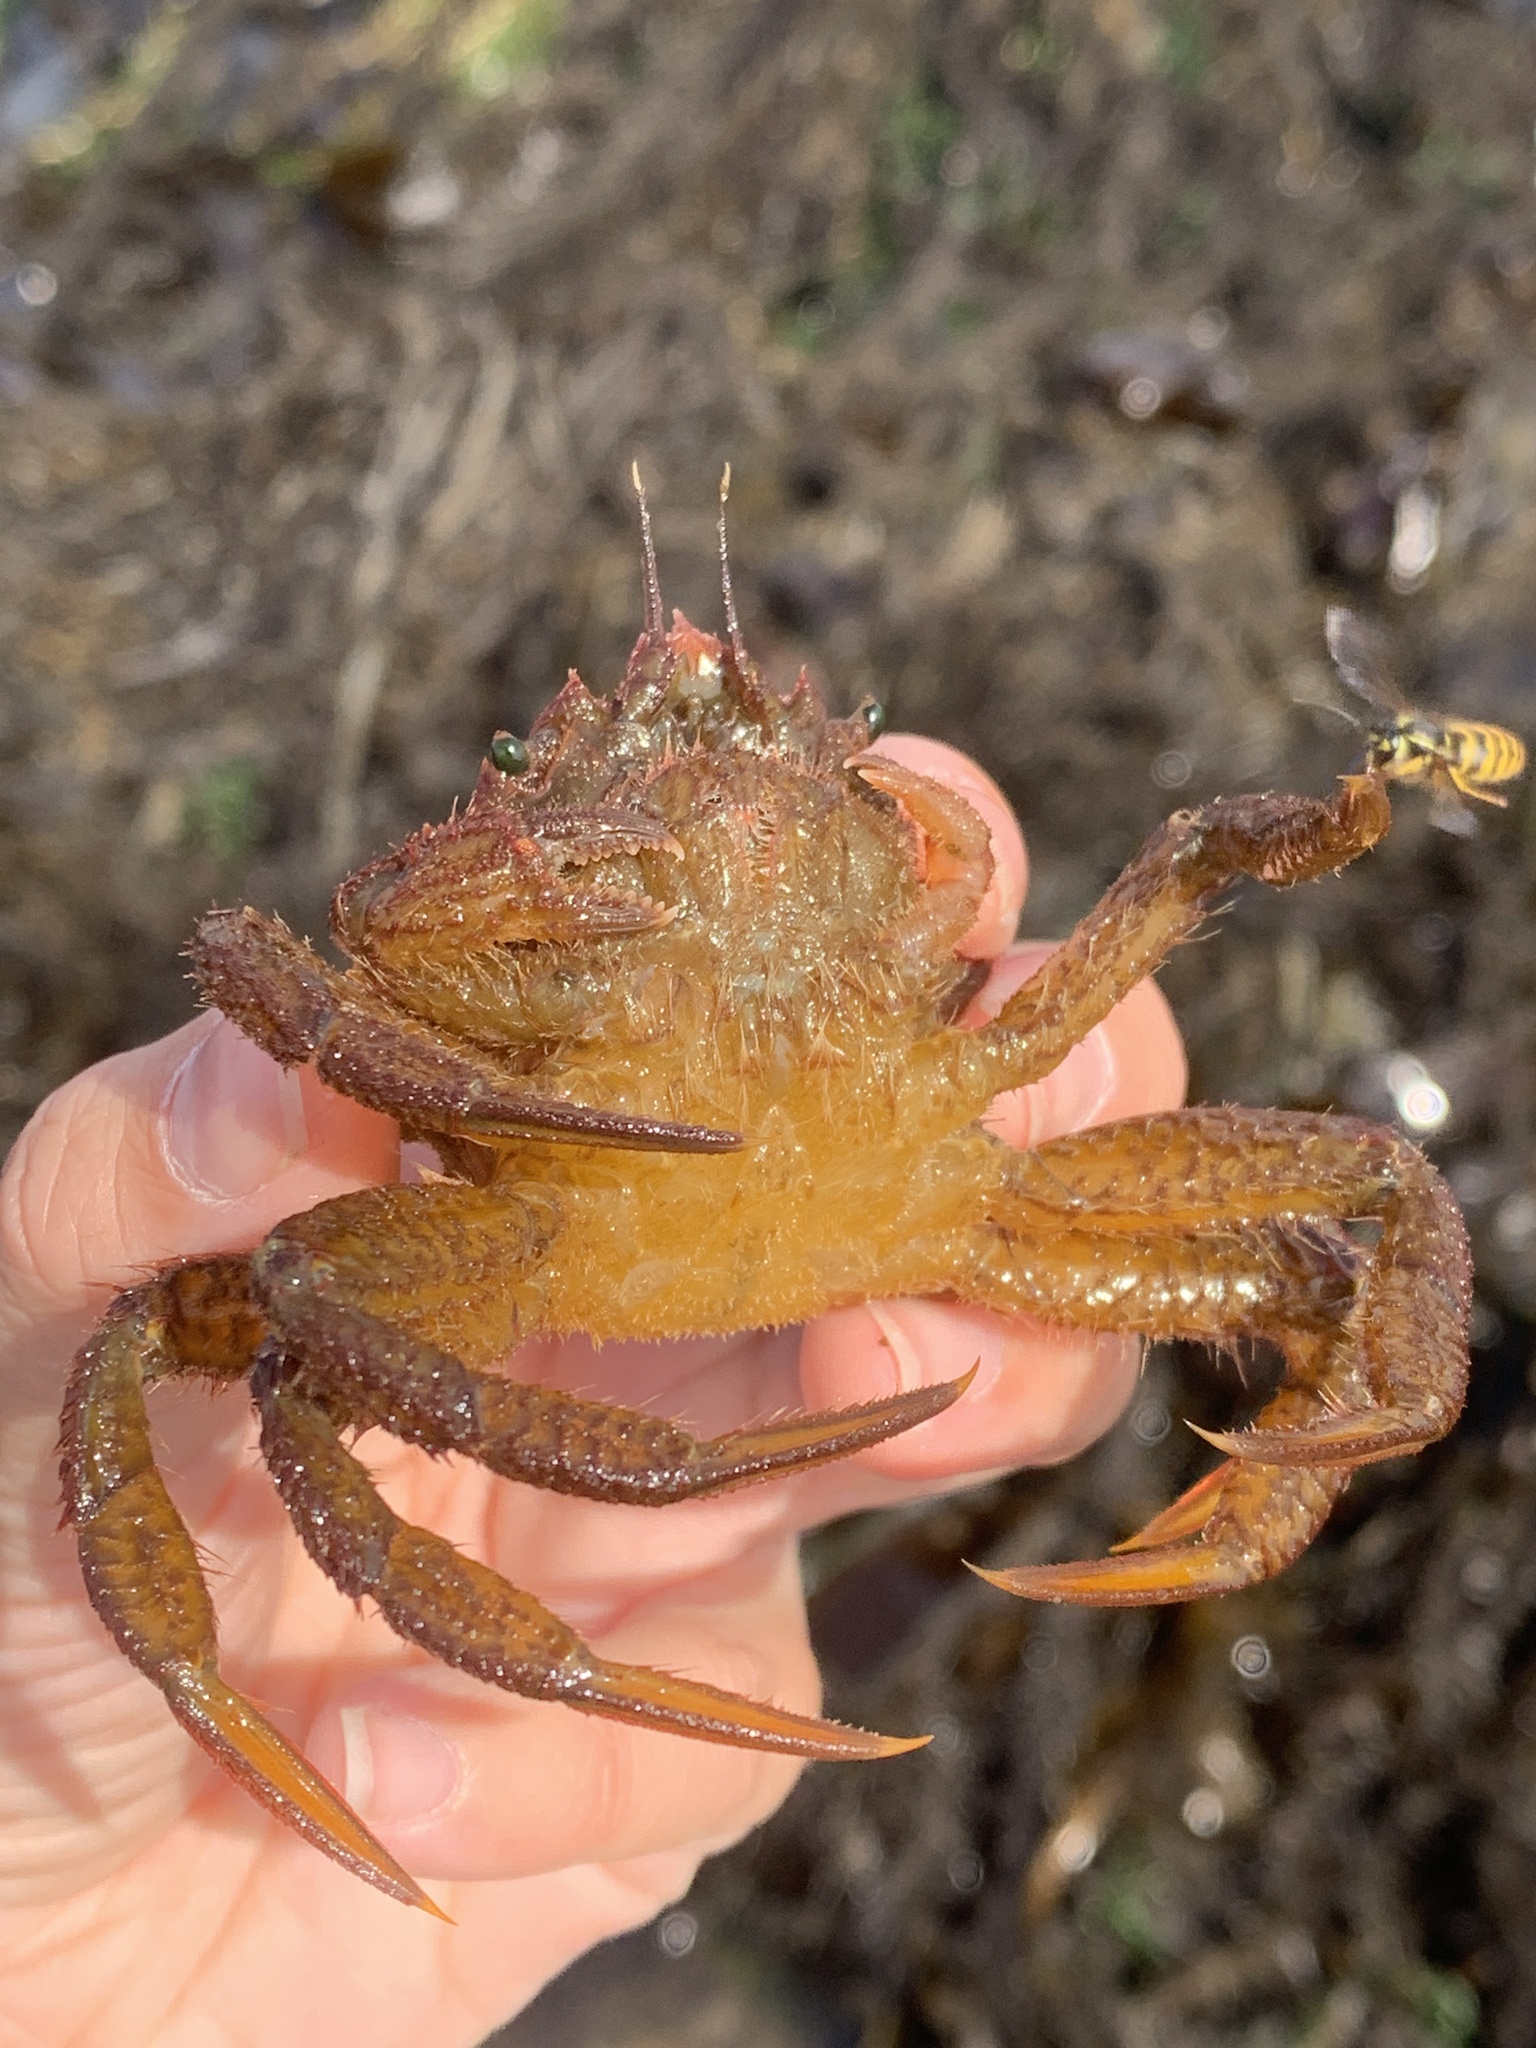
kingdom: Animalia
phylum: Arthropoda
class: Malacostraca
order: Decapoda
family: Cheiragonidae
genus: Telmessus
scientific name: Telmessus cheiragonus
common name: Helmet crab
